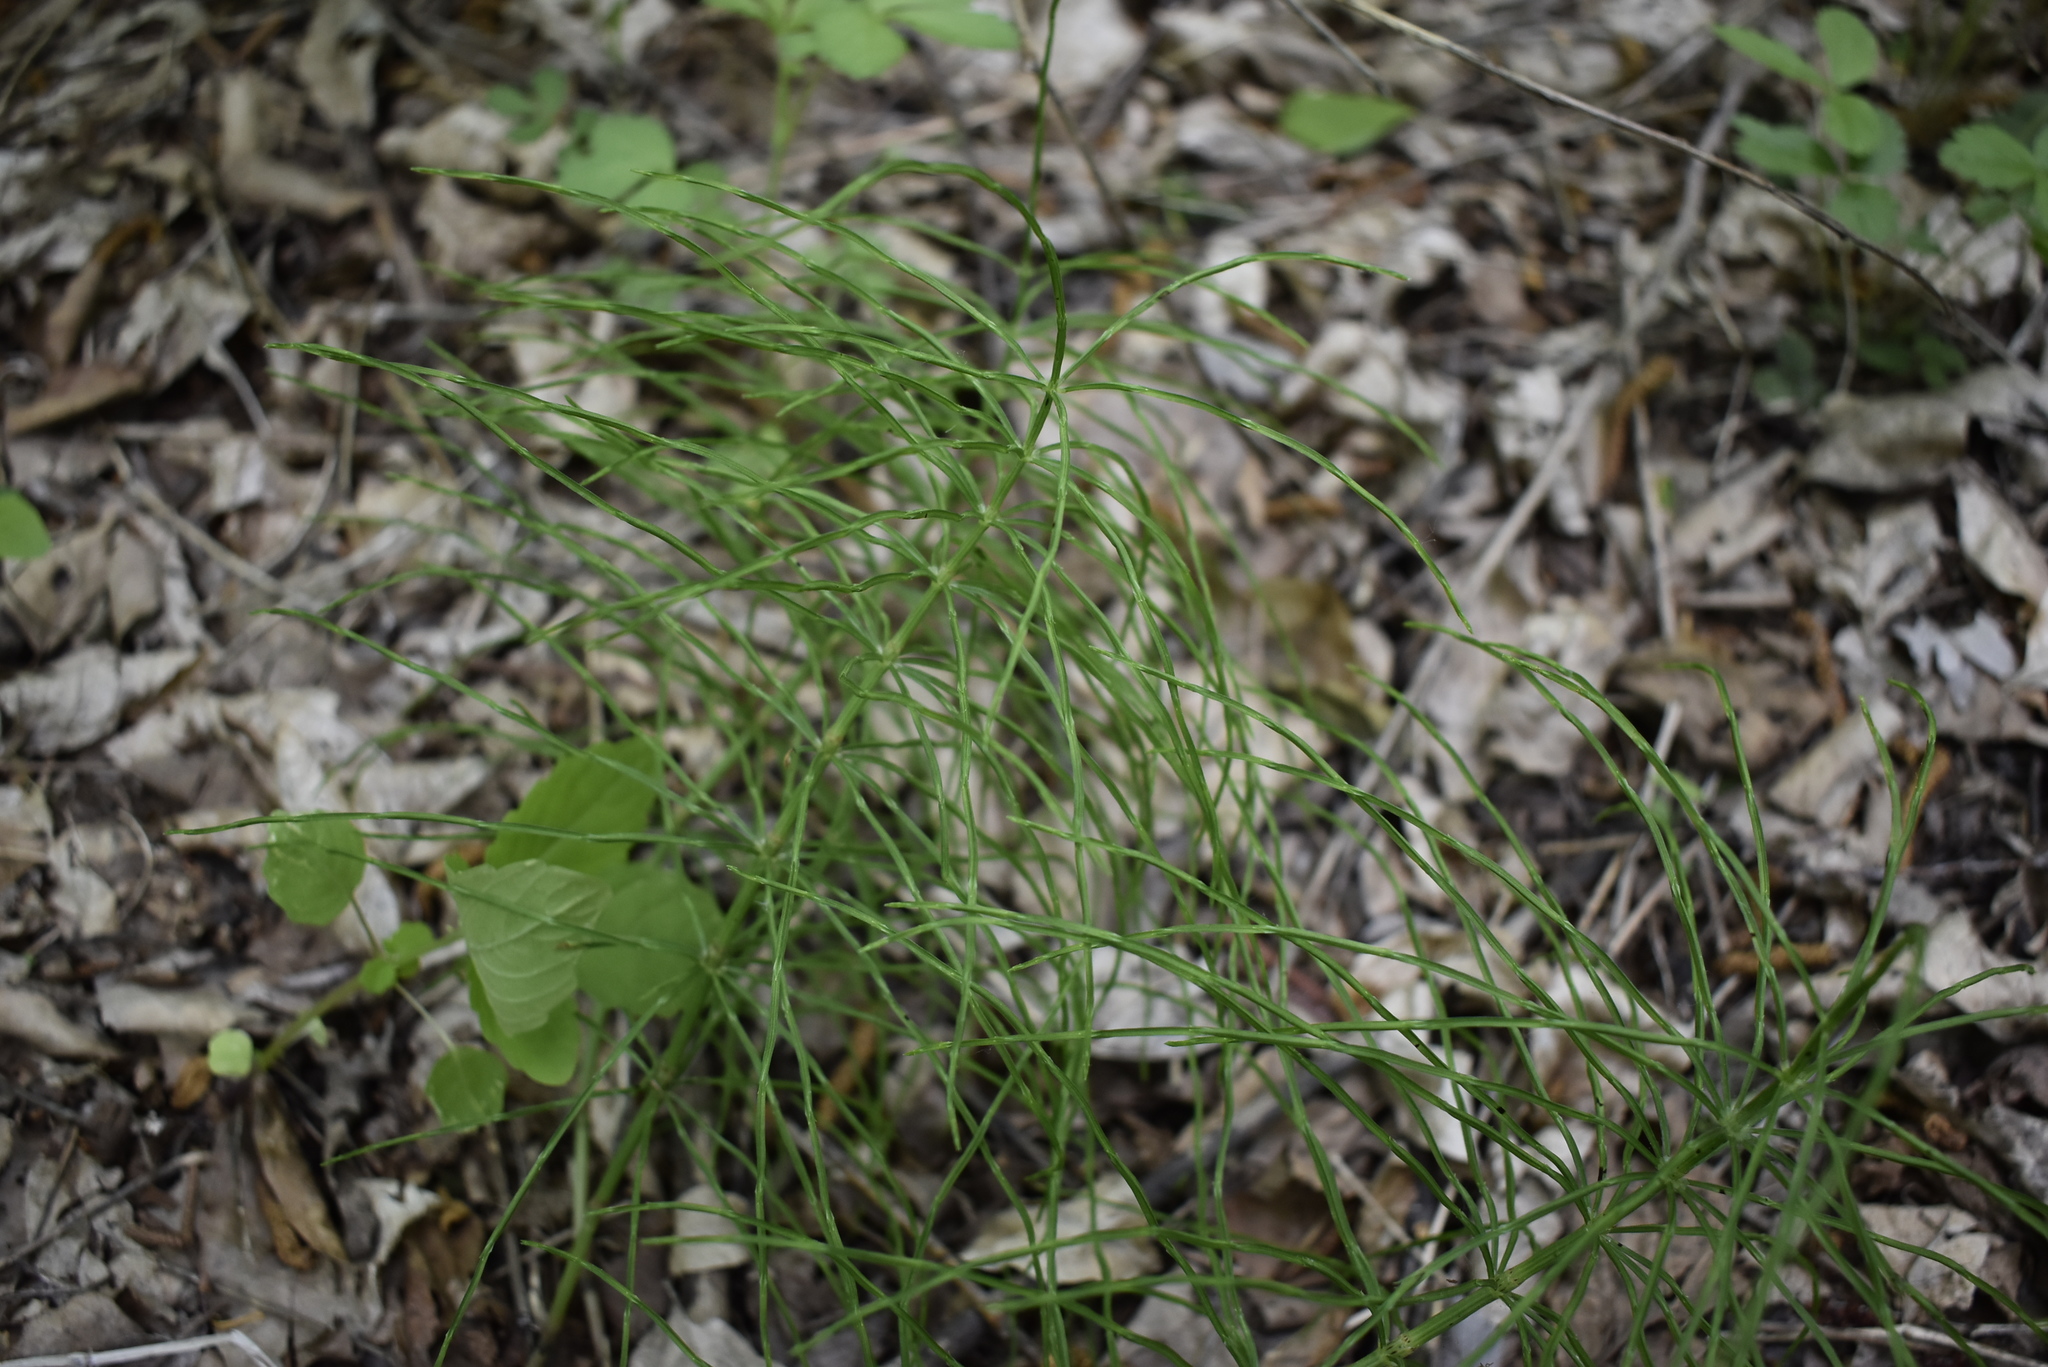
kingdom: Plantae
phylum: Tracheophyta
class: Polypodiopsida
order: Equisetales
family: Equisetaceae
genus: Equisetum
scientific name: Equisetum arvense
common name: Field horsetail
